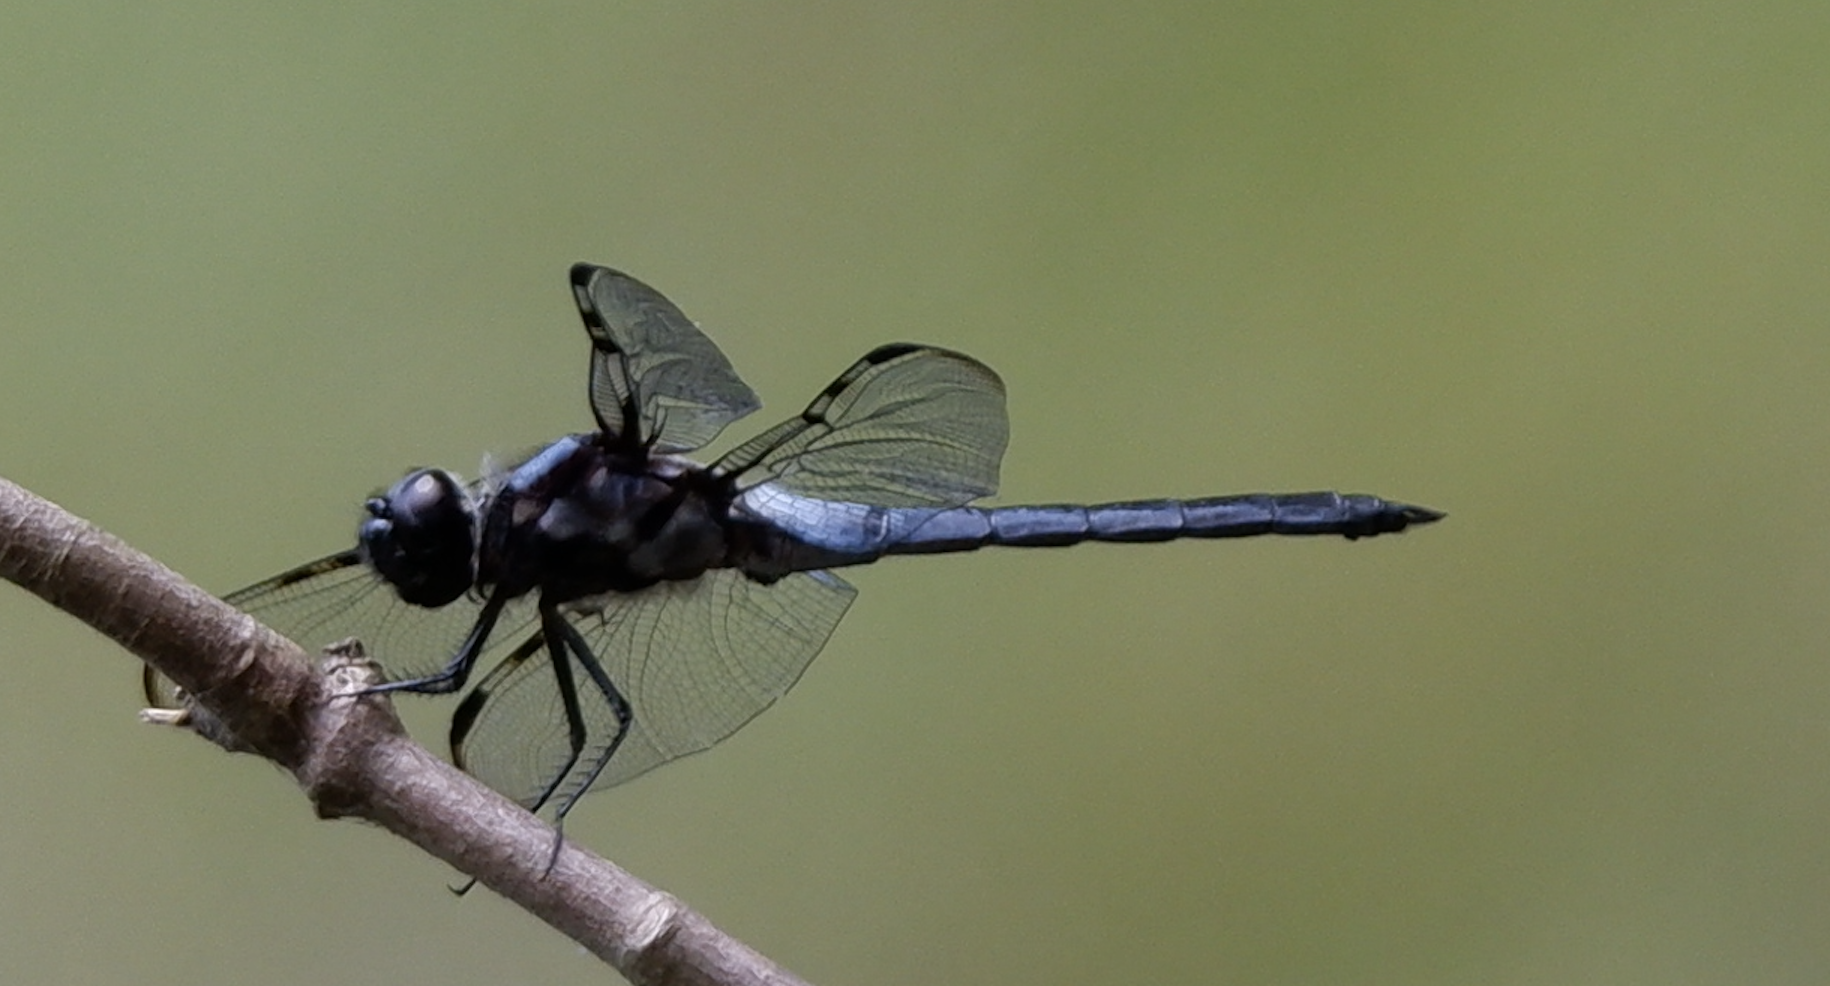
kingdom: Animalia
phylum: Arthropoda
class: Insecta
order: Odonata
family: Libellulidae
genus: Libellula
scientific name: Libellula axilena
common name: Bar-winged skimmer
